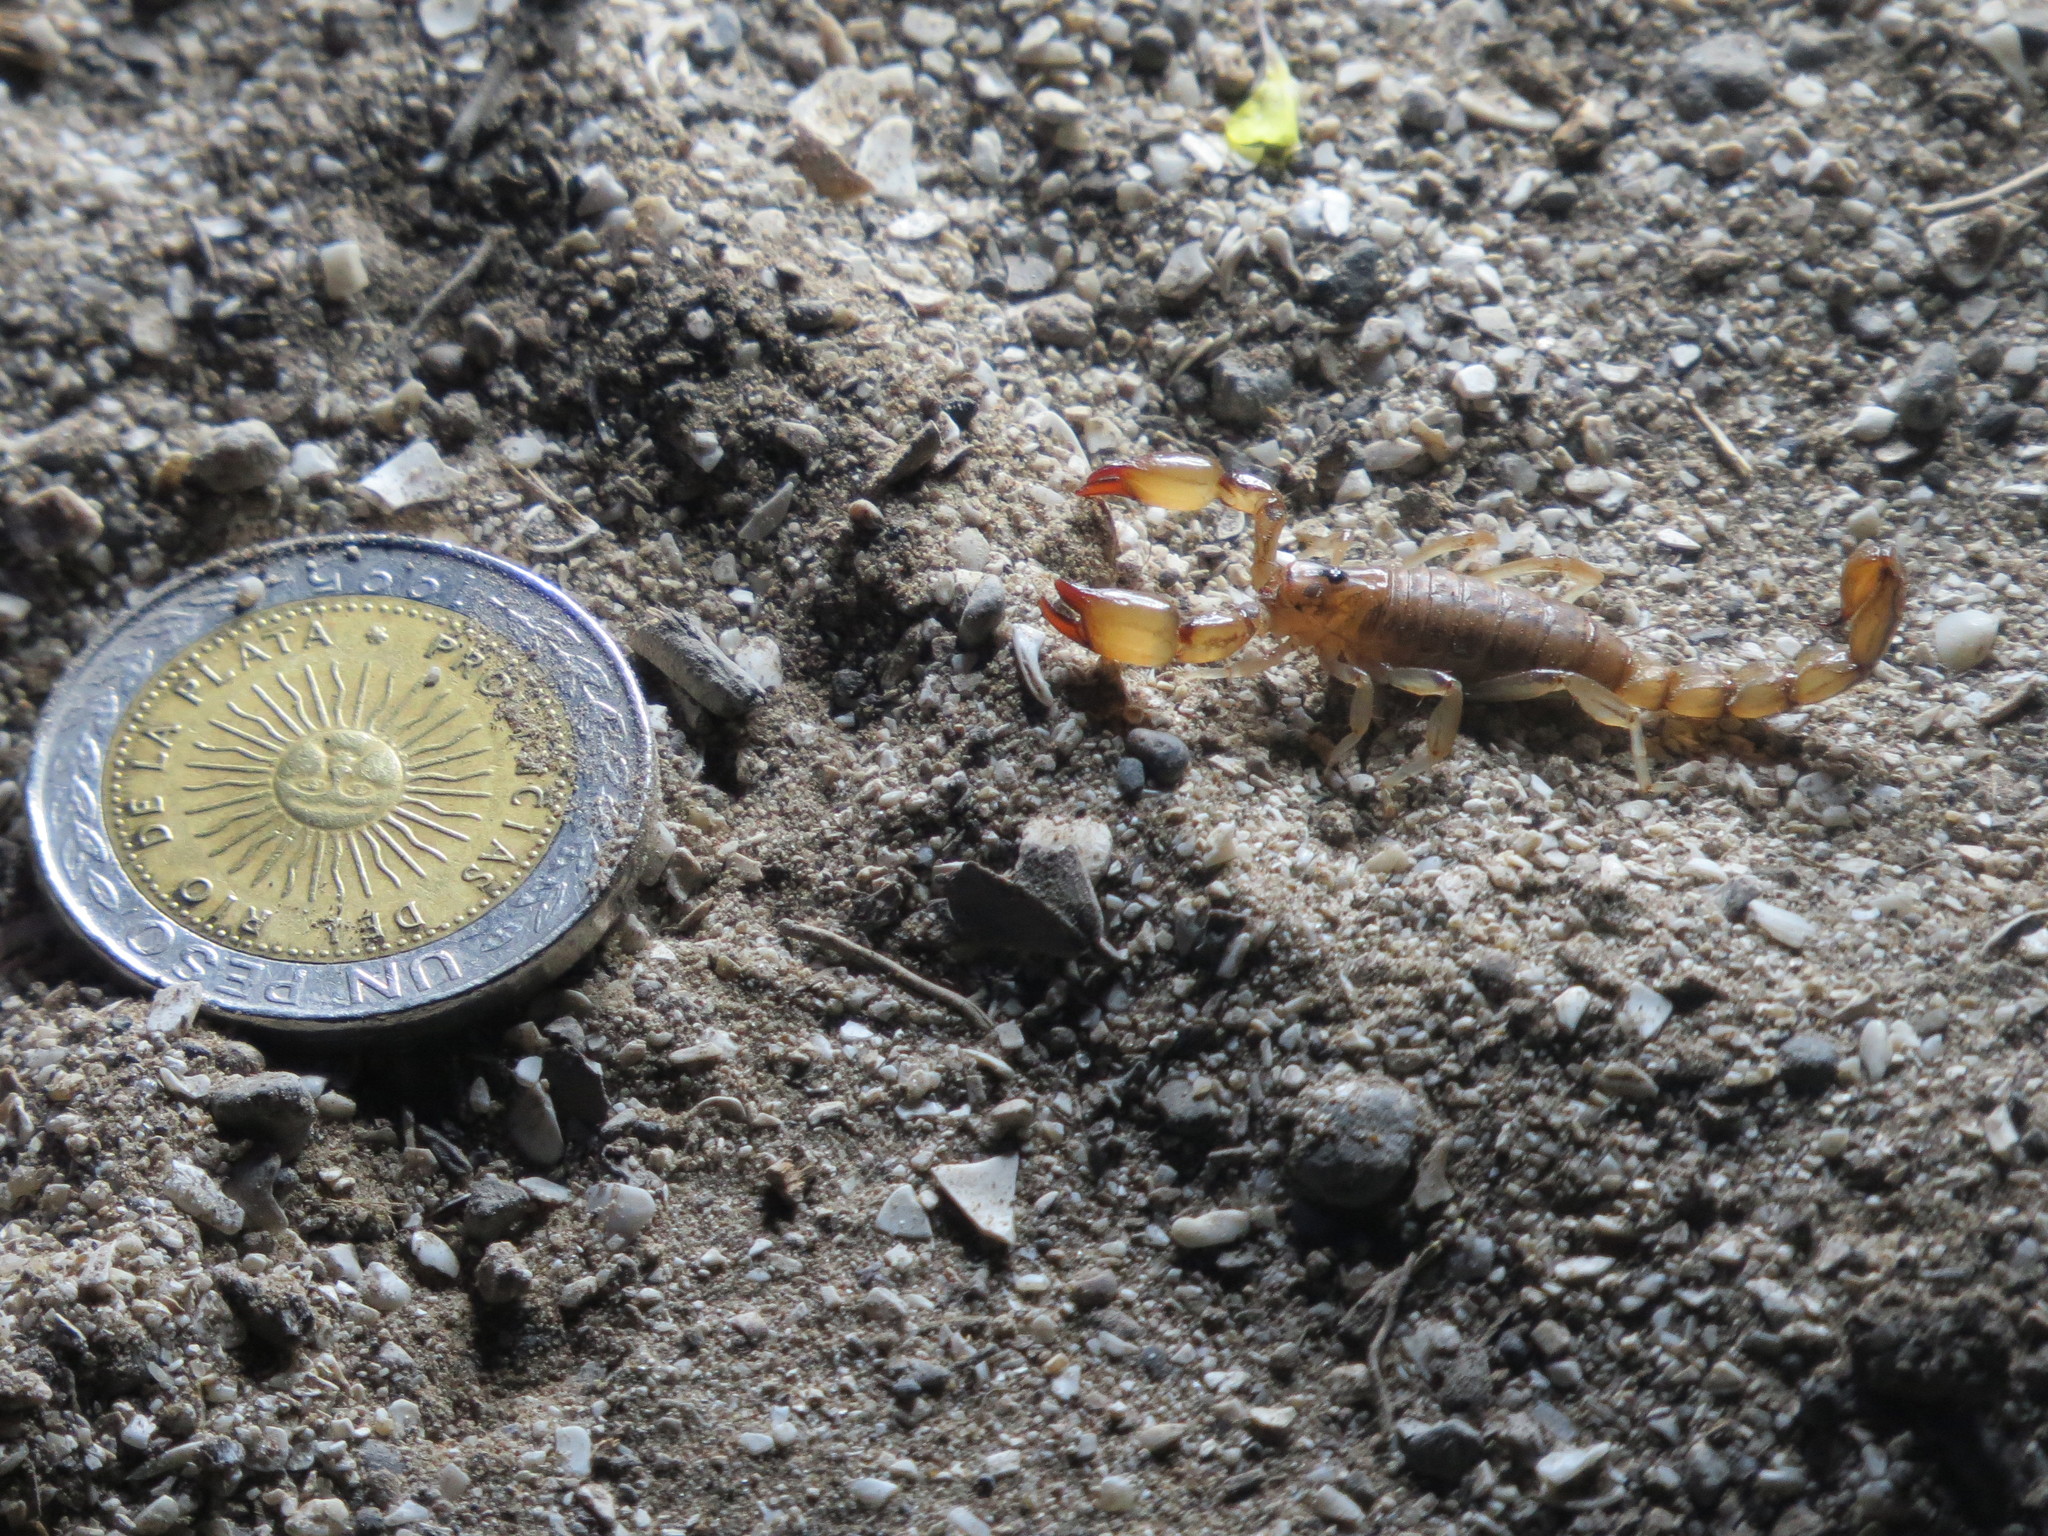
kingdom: Animalia
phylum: Arthropoda
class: Arachnida
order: Scorpiones
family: Bothriuridae
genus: Bothriurus
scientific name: Bothriurus flavidus
